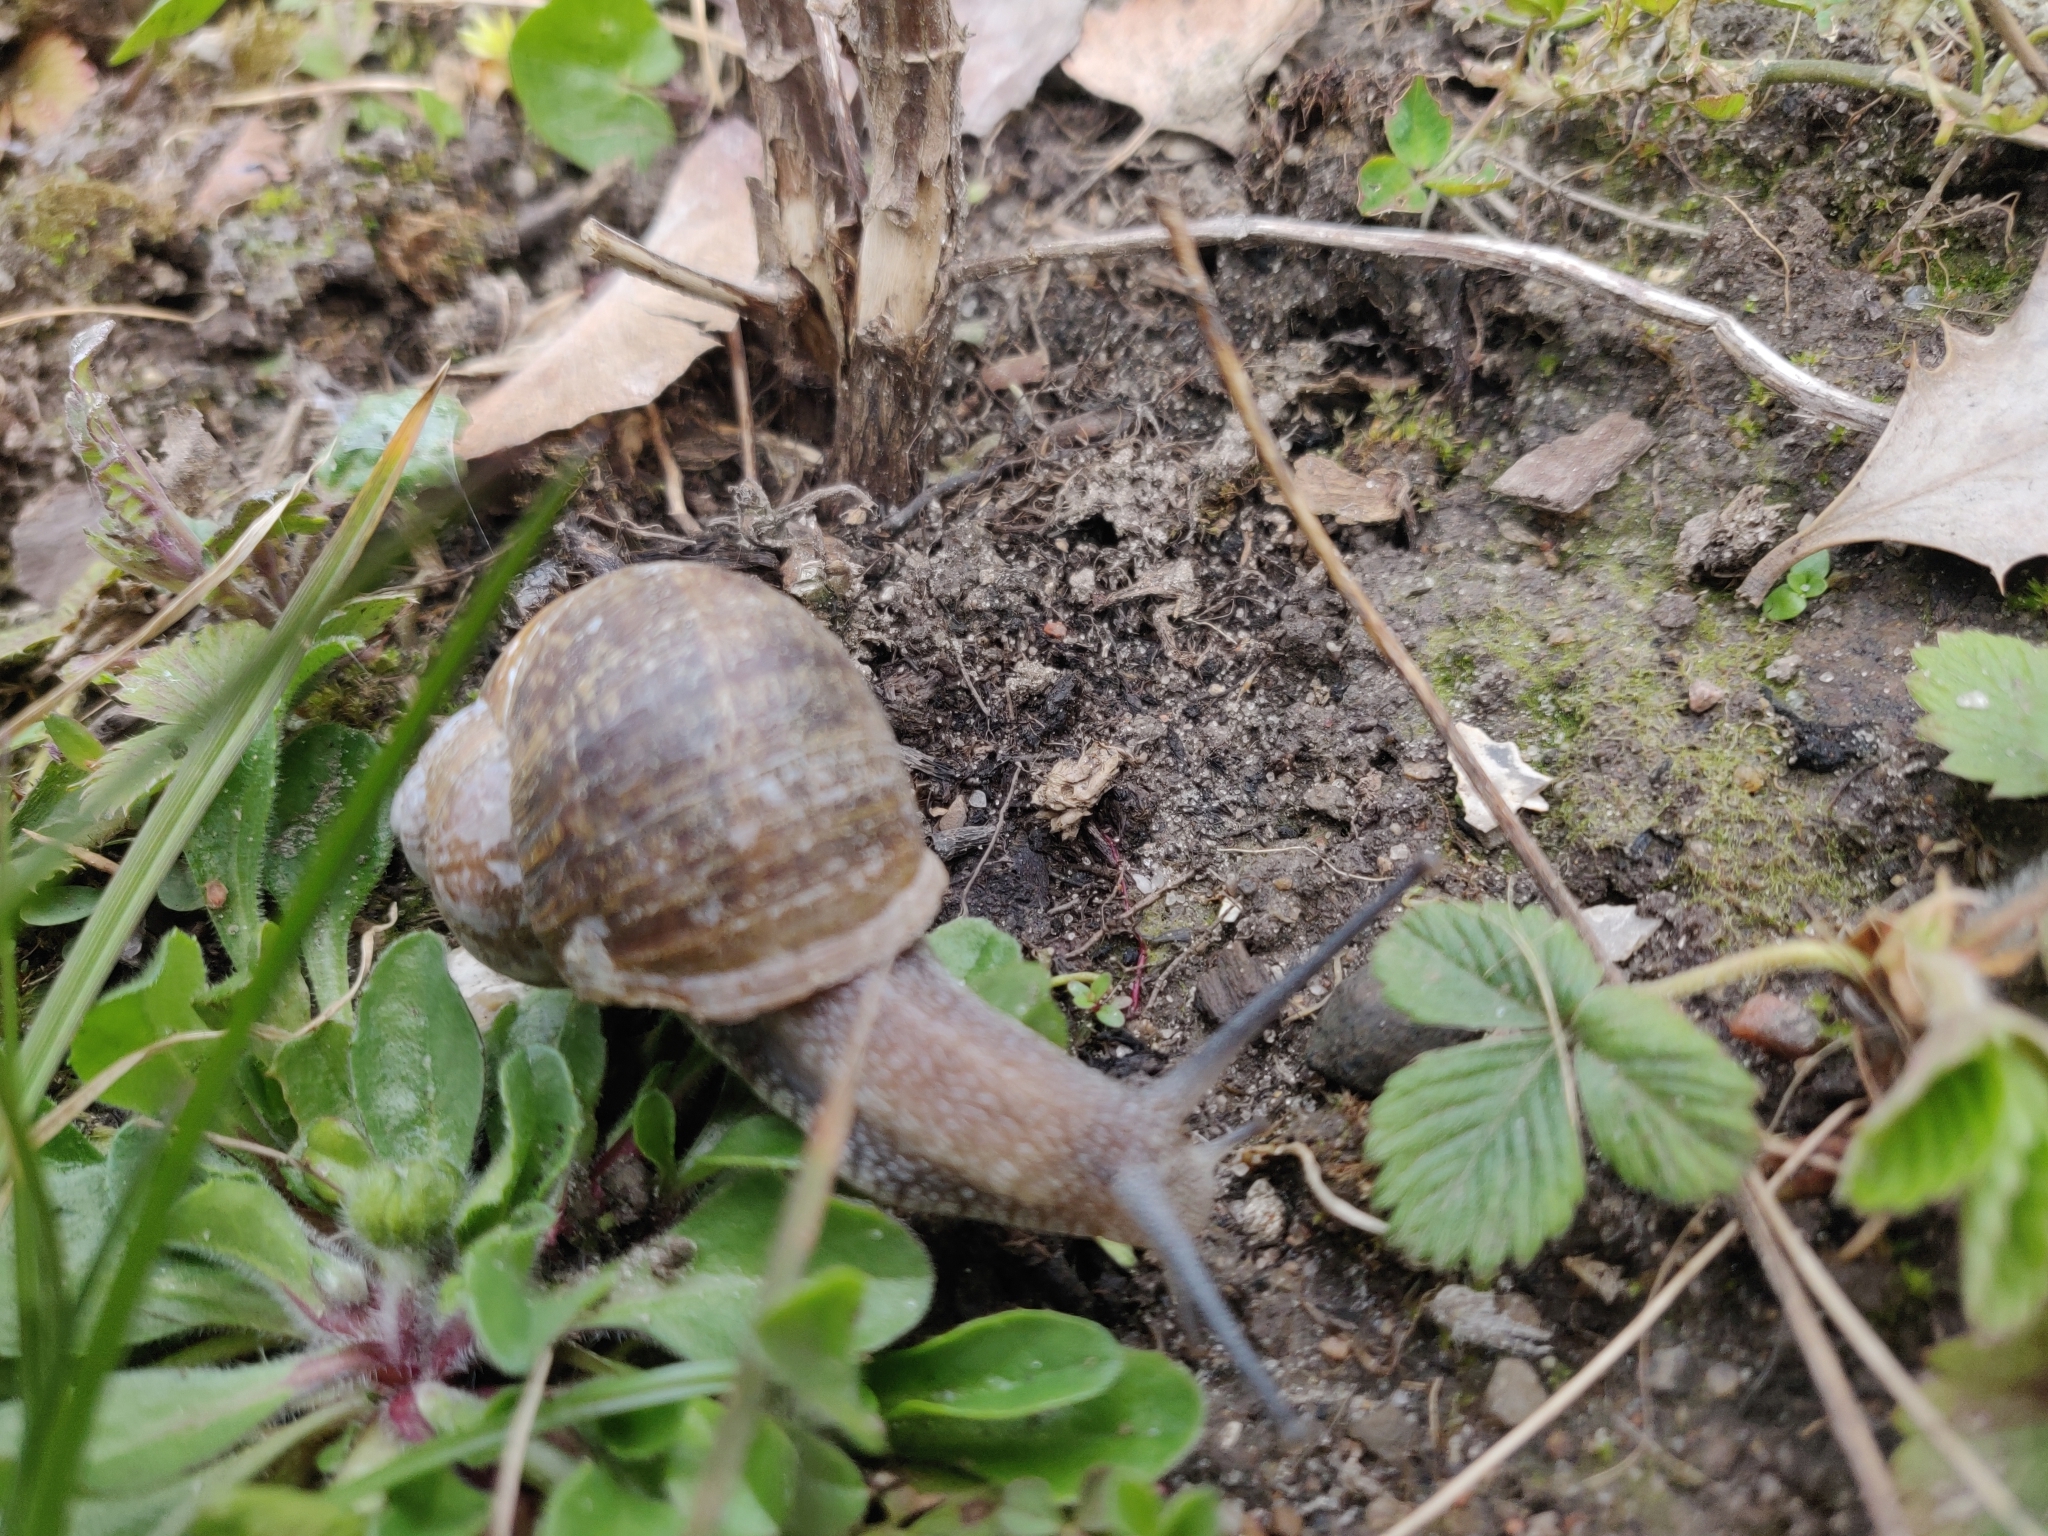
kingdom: Animalia
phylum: Mollusca
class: Gastropoda
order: Stylommatophora
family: Helicidae
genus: Helix
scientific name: Helix pomatia
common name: Roman snail
